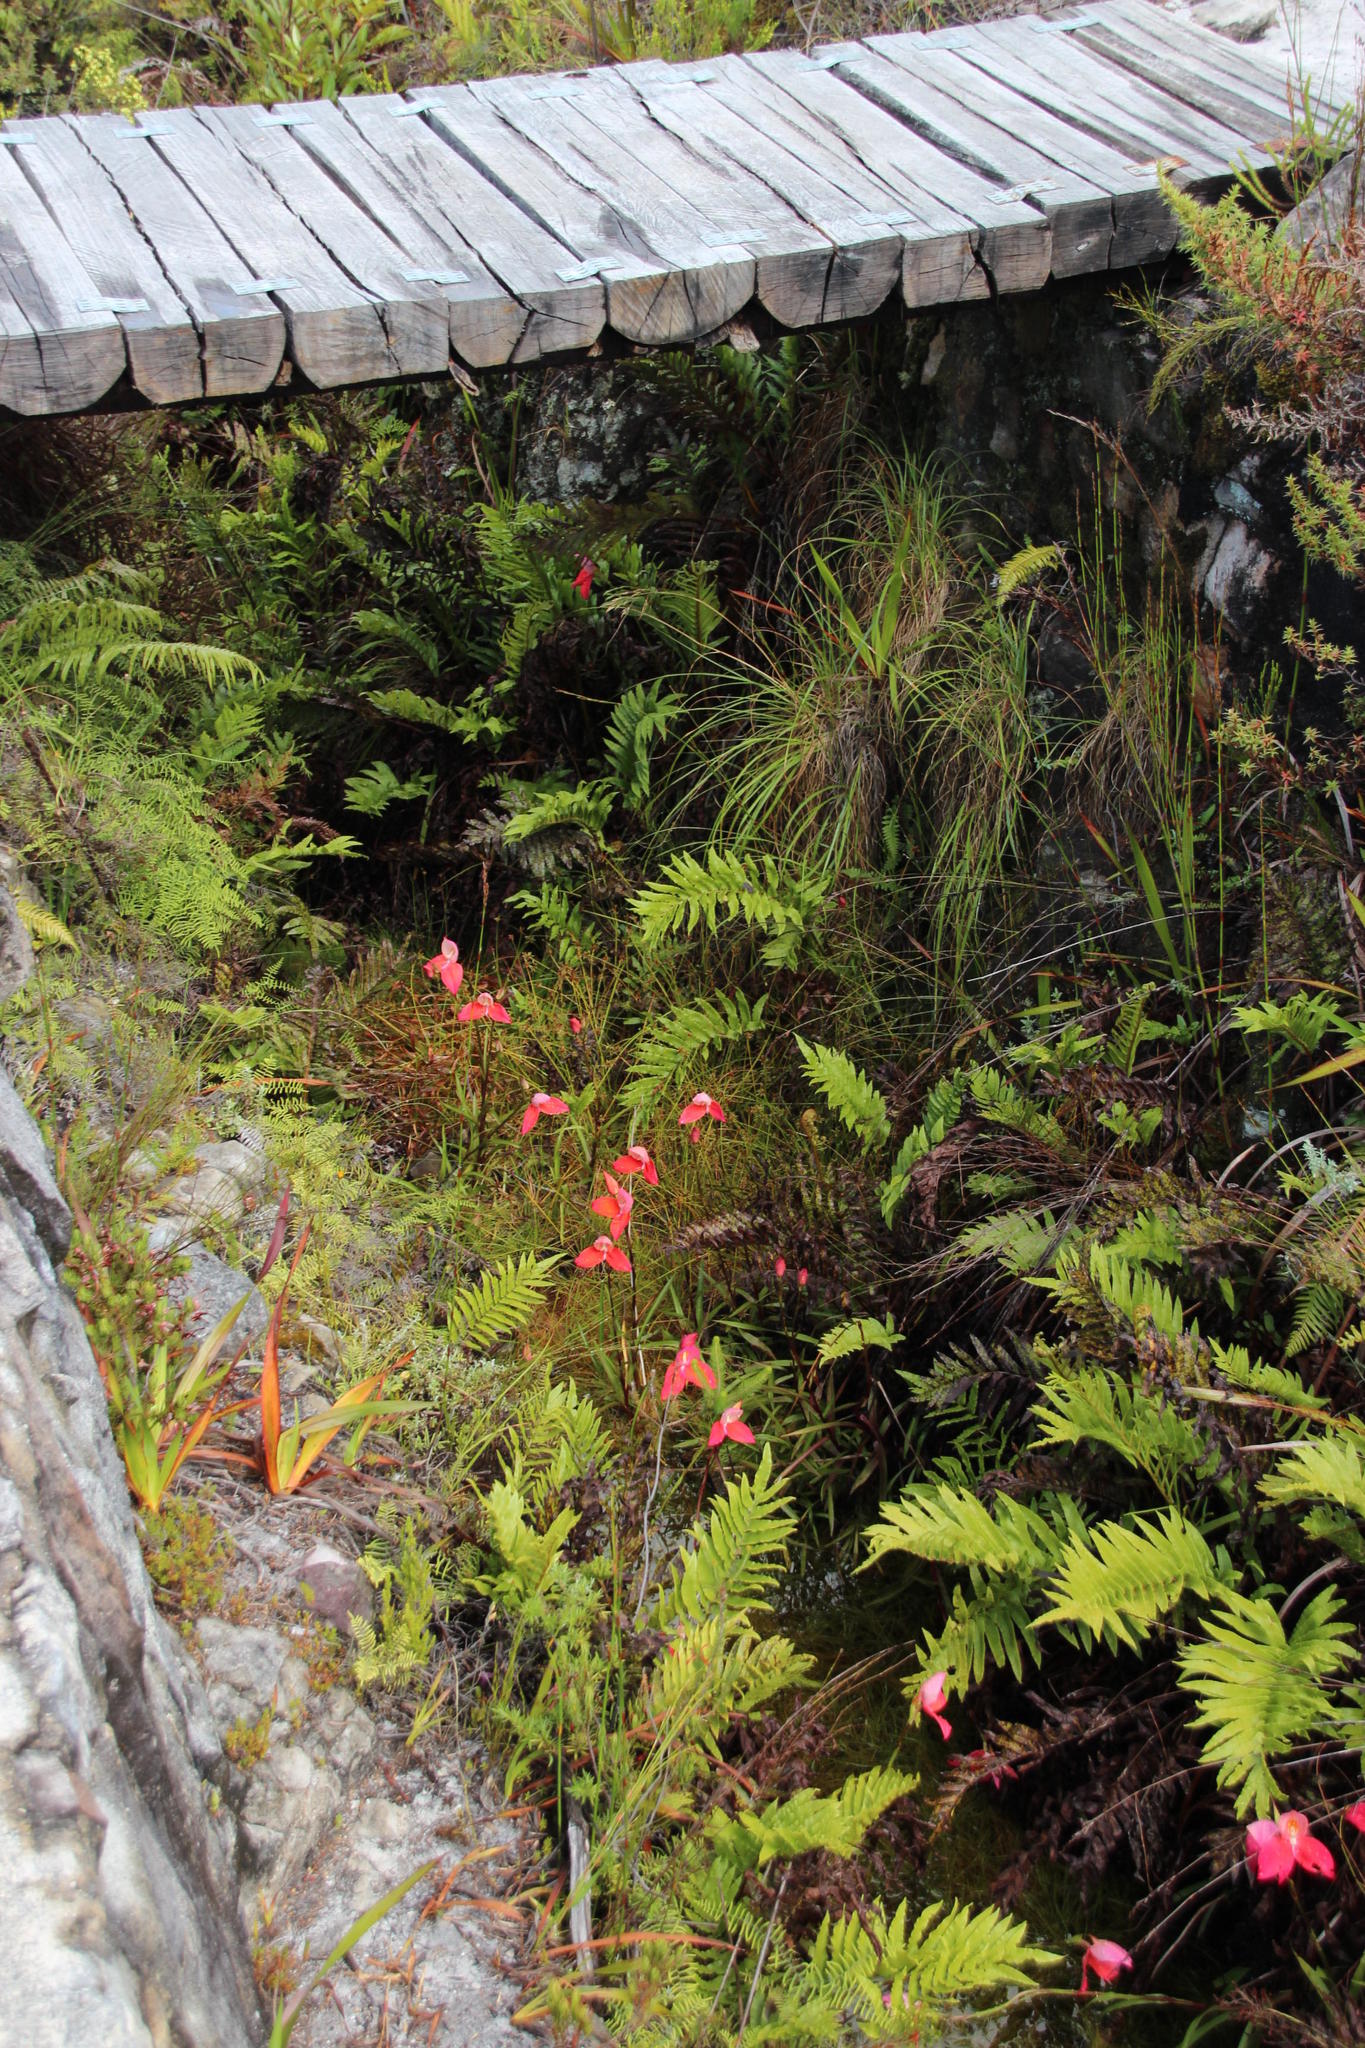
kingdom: Plantae
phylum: Tracheophyta
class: Liliopsida
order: Asparagales
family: Orchidaceae
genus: Disa
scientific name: Disa uniflora
